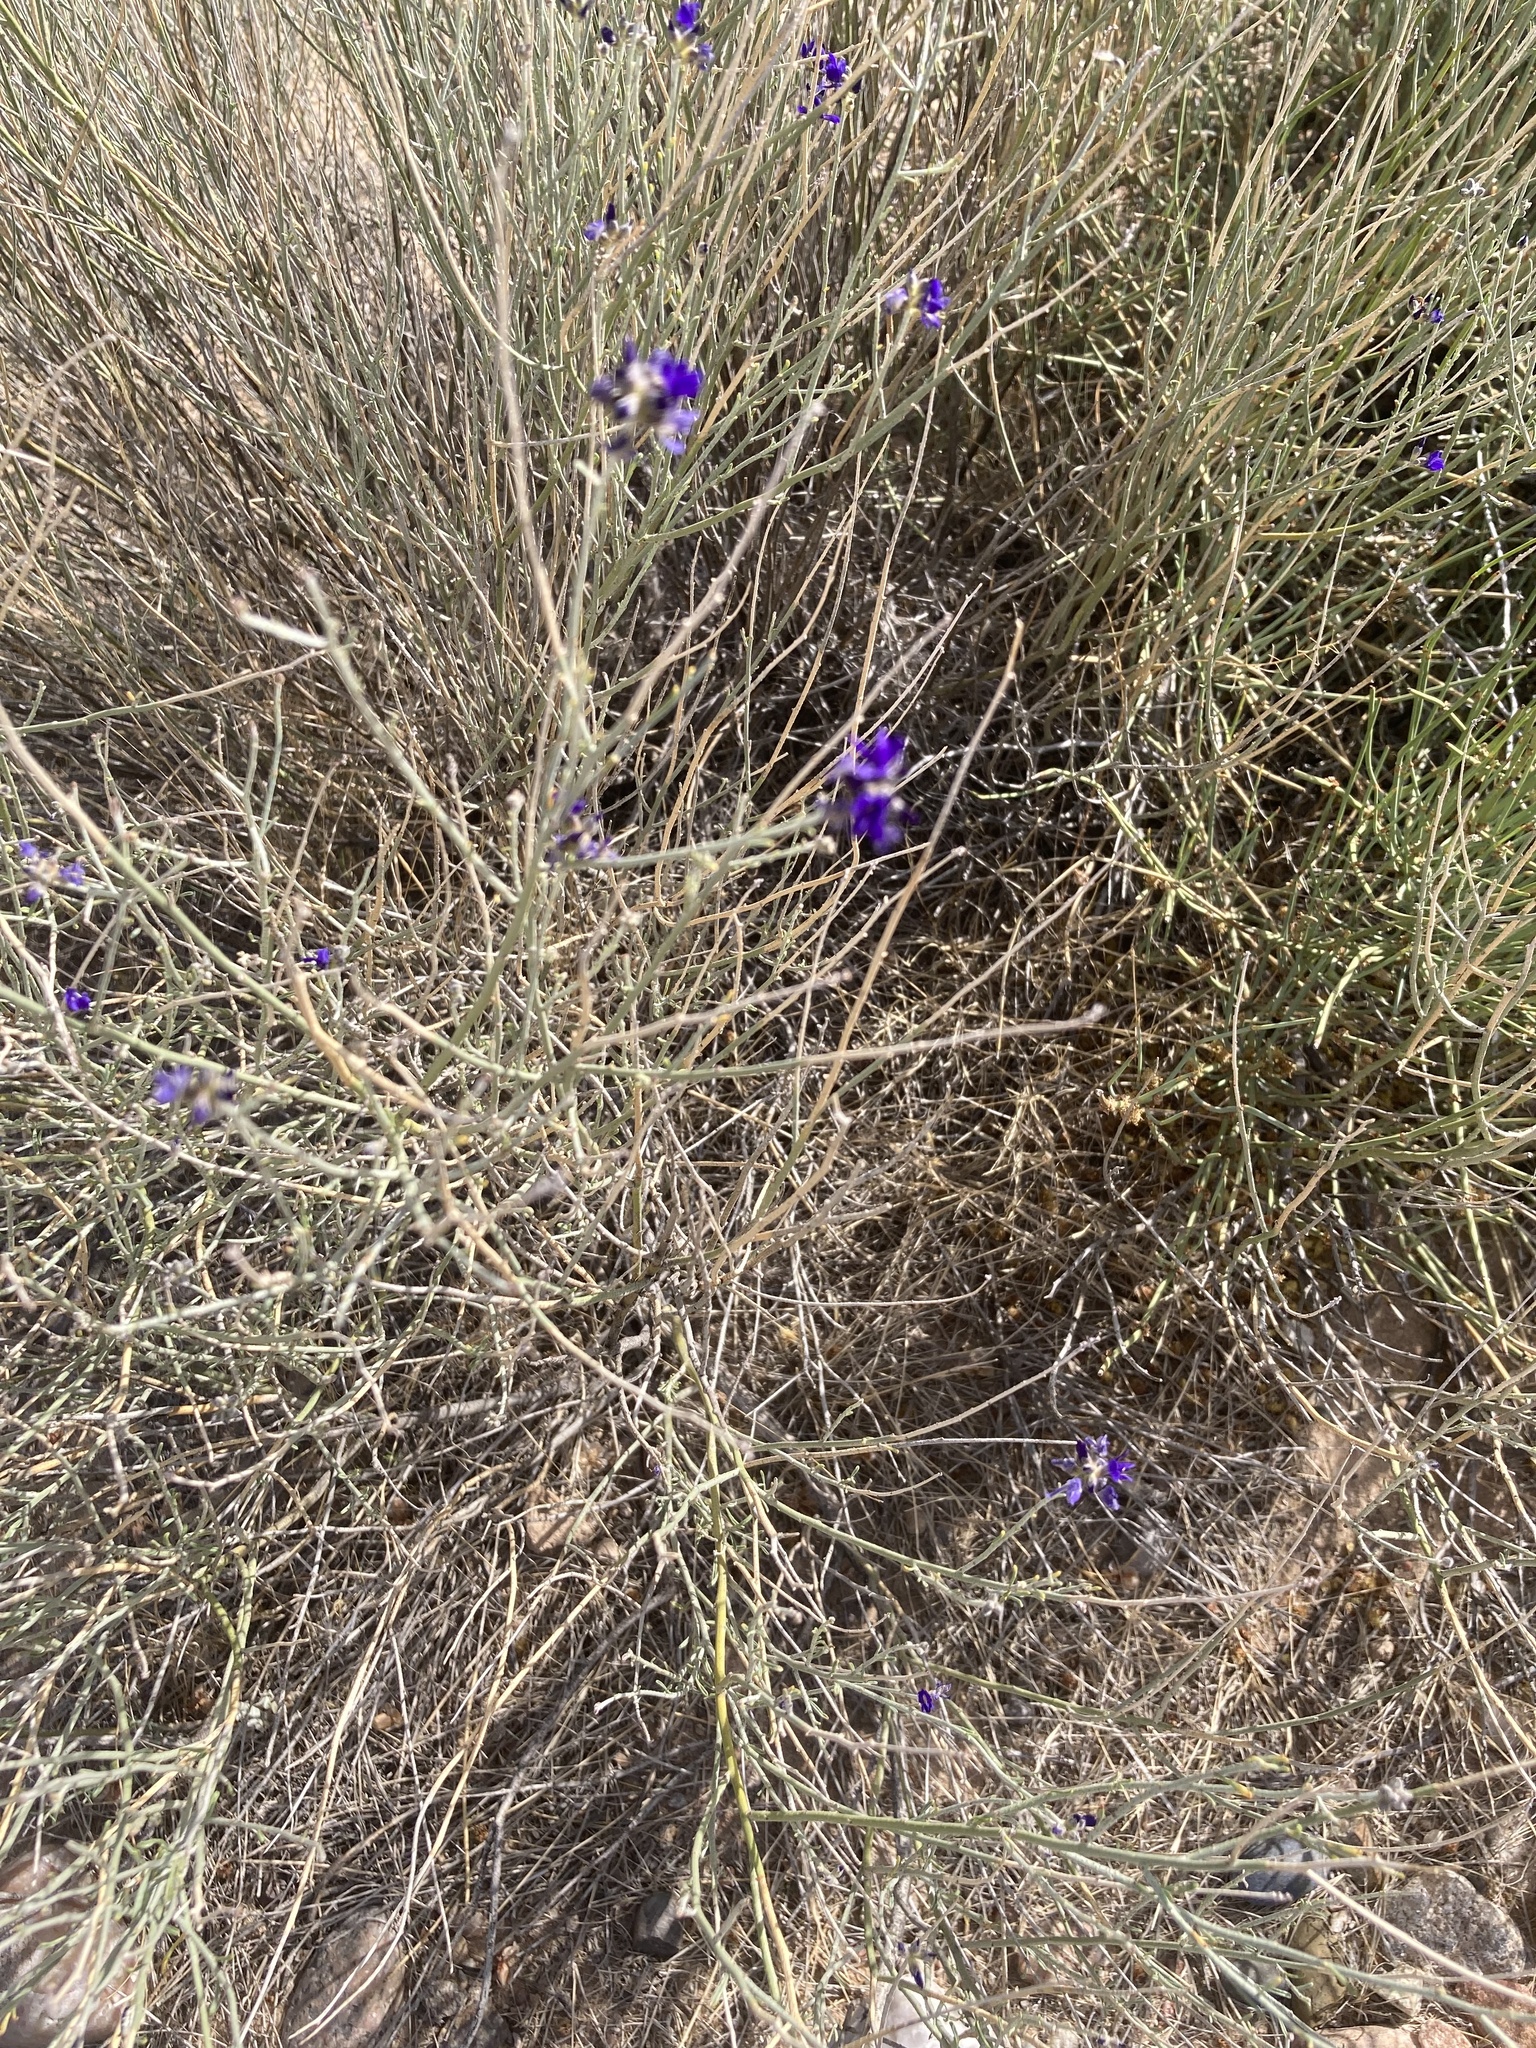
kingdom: Plantae
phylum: Tracheophyta
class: Magnoliopsida
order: Fabales
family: Fabaceae
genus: Psorothamnus
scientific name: Psorothamnus scoparius
